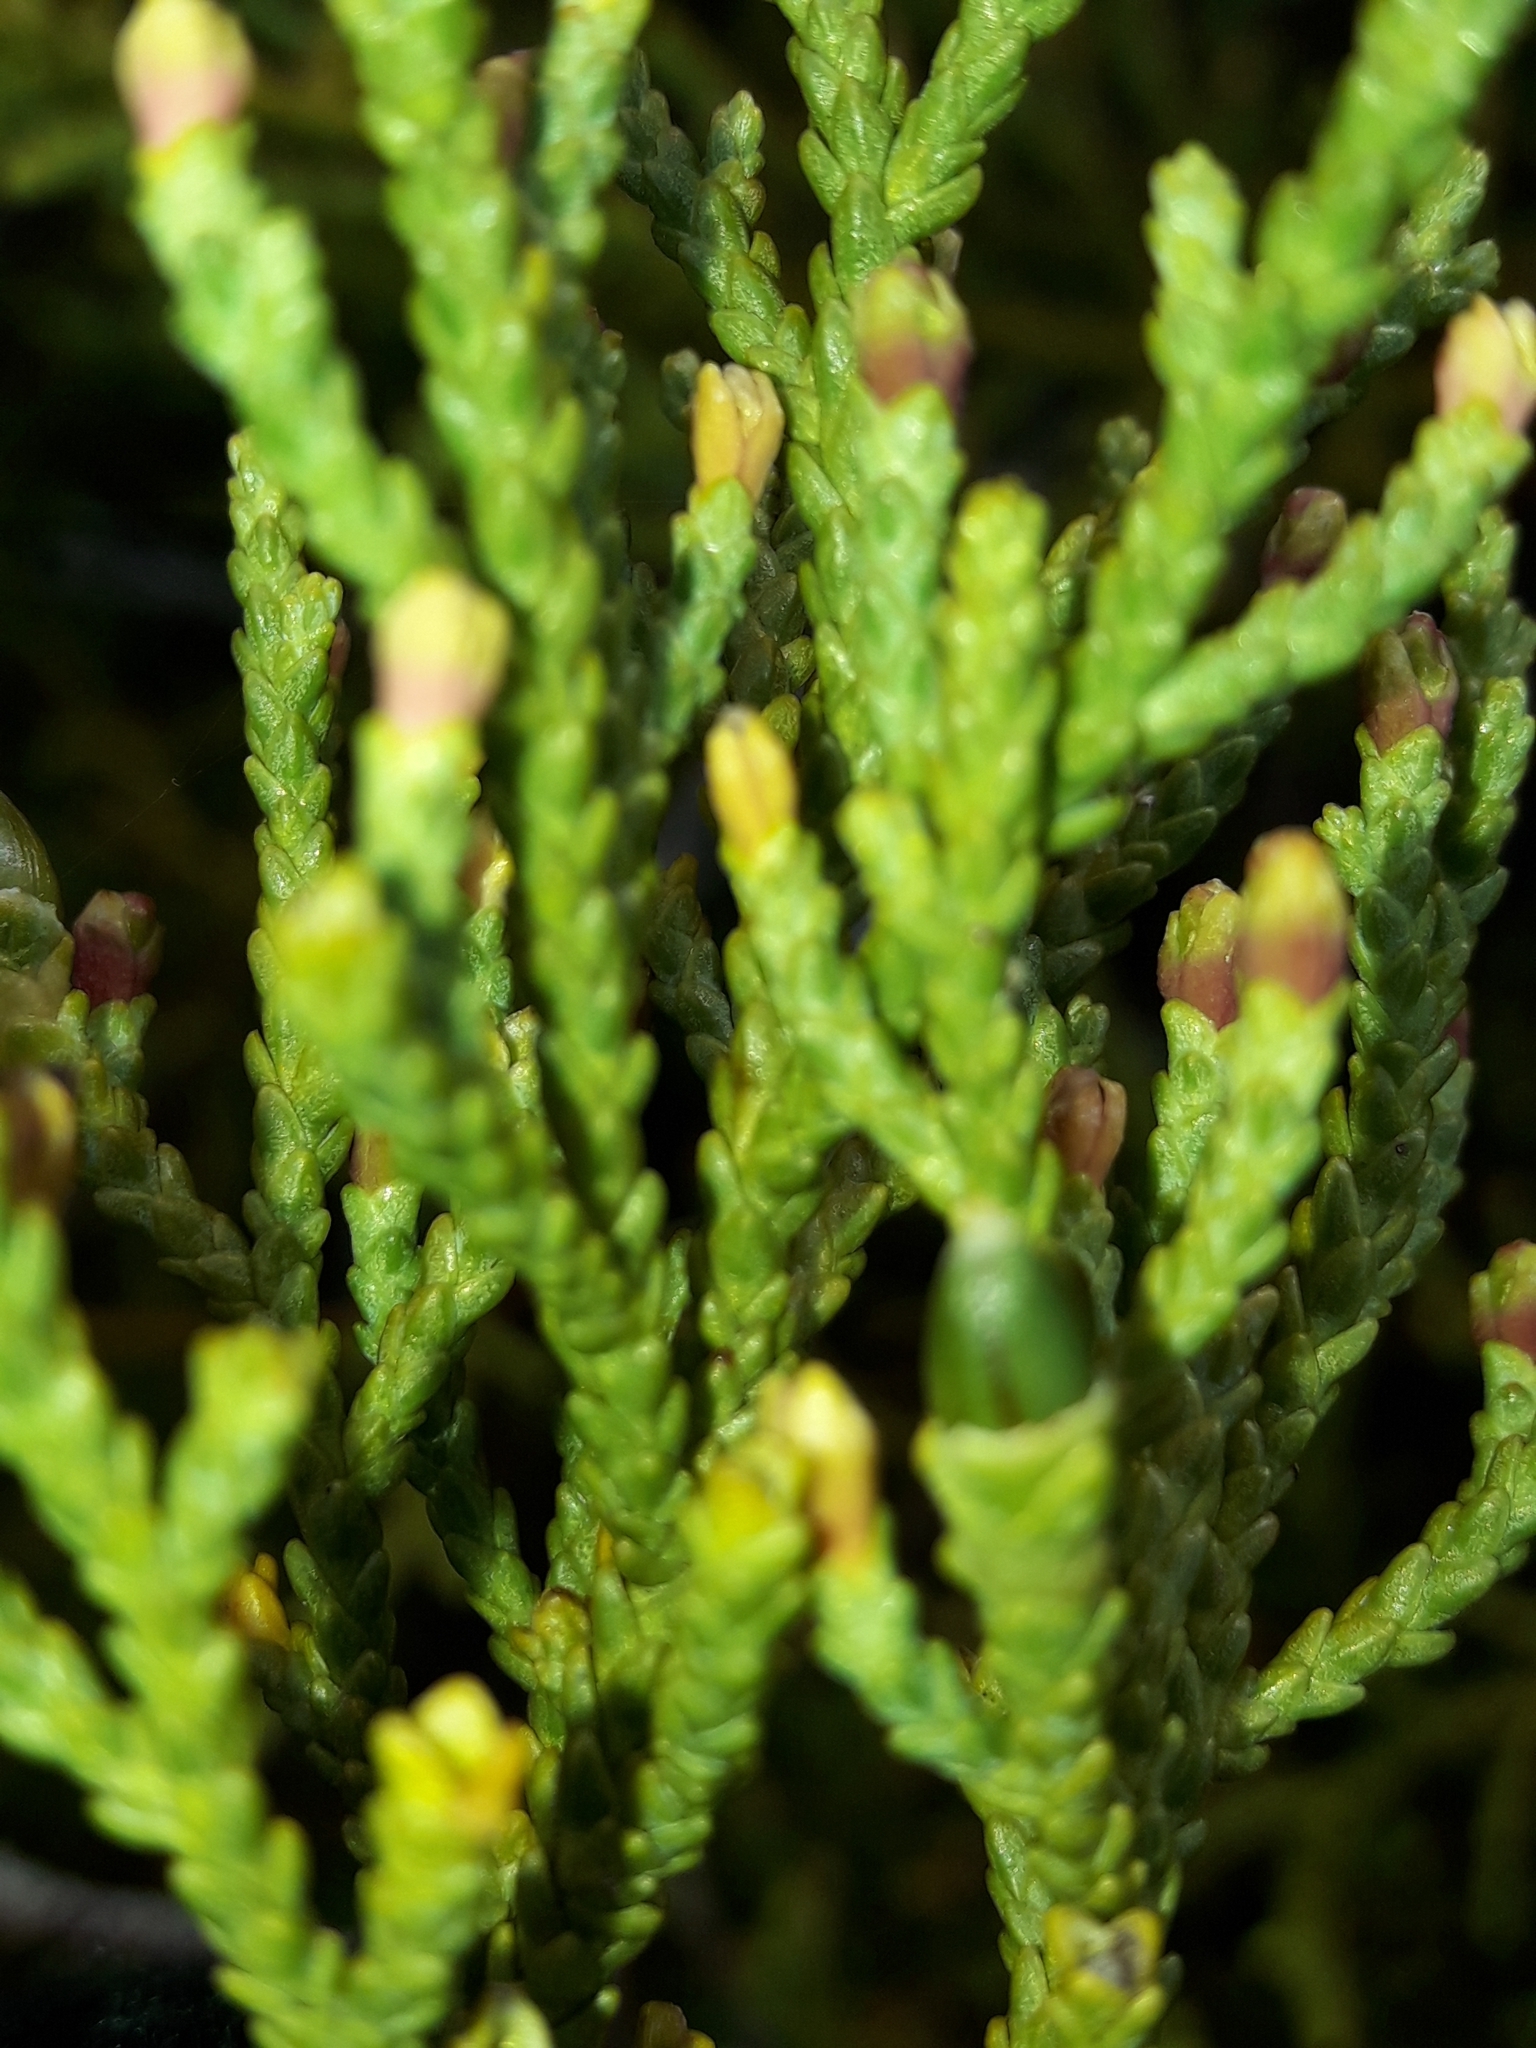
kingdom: Plantae
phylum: Tracheophyta
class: Pinopsida
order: Pinales
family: Podocarpaceae
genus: Lepidothamnus
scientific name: Lepidothamnus laxifolius
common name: Pygmy pine
